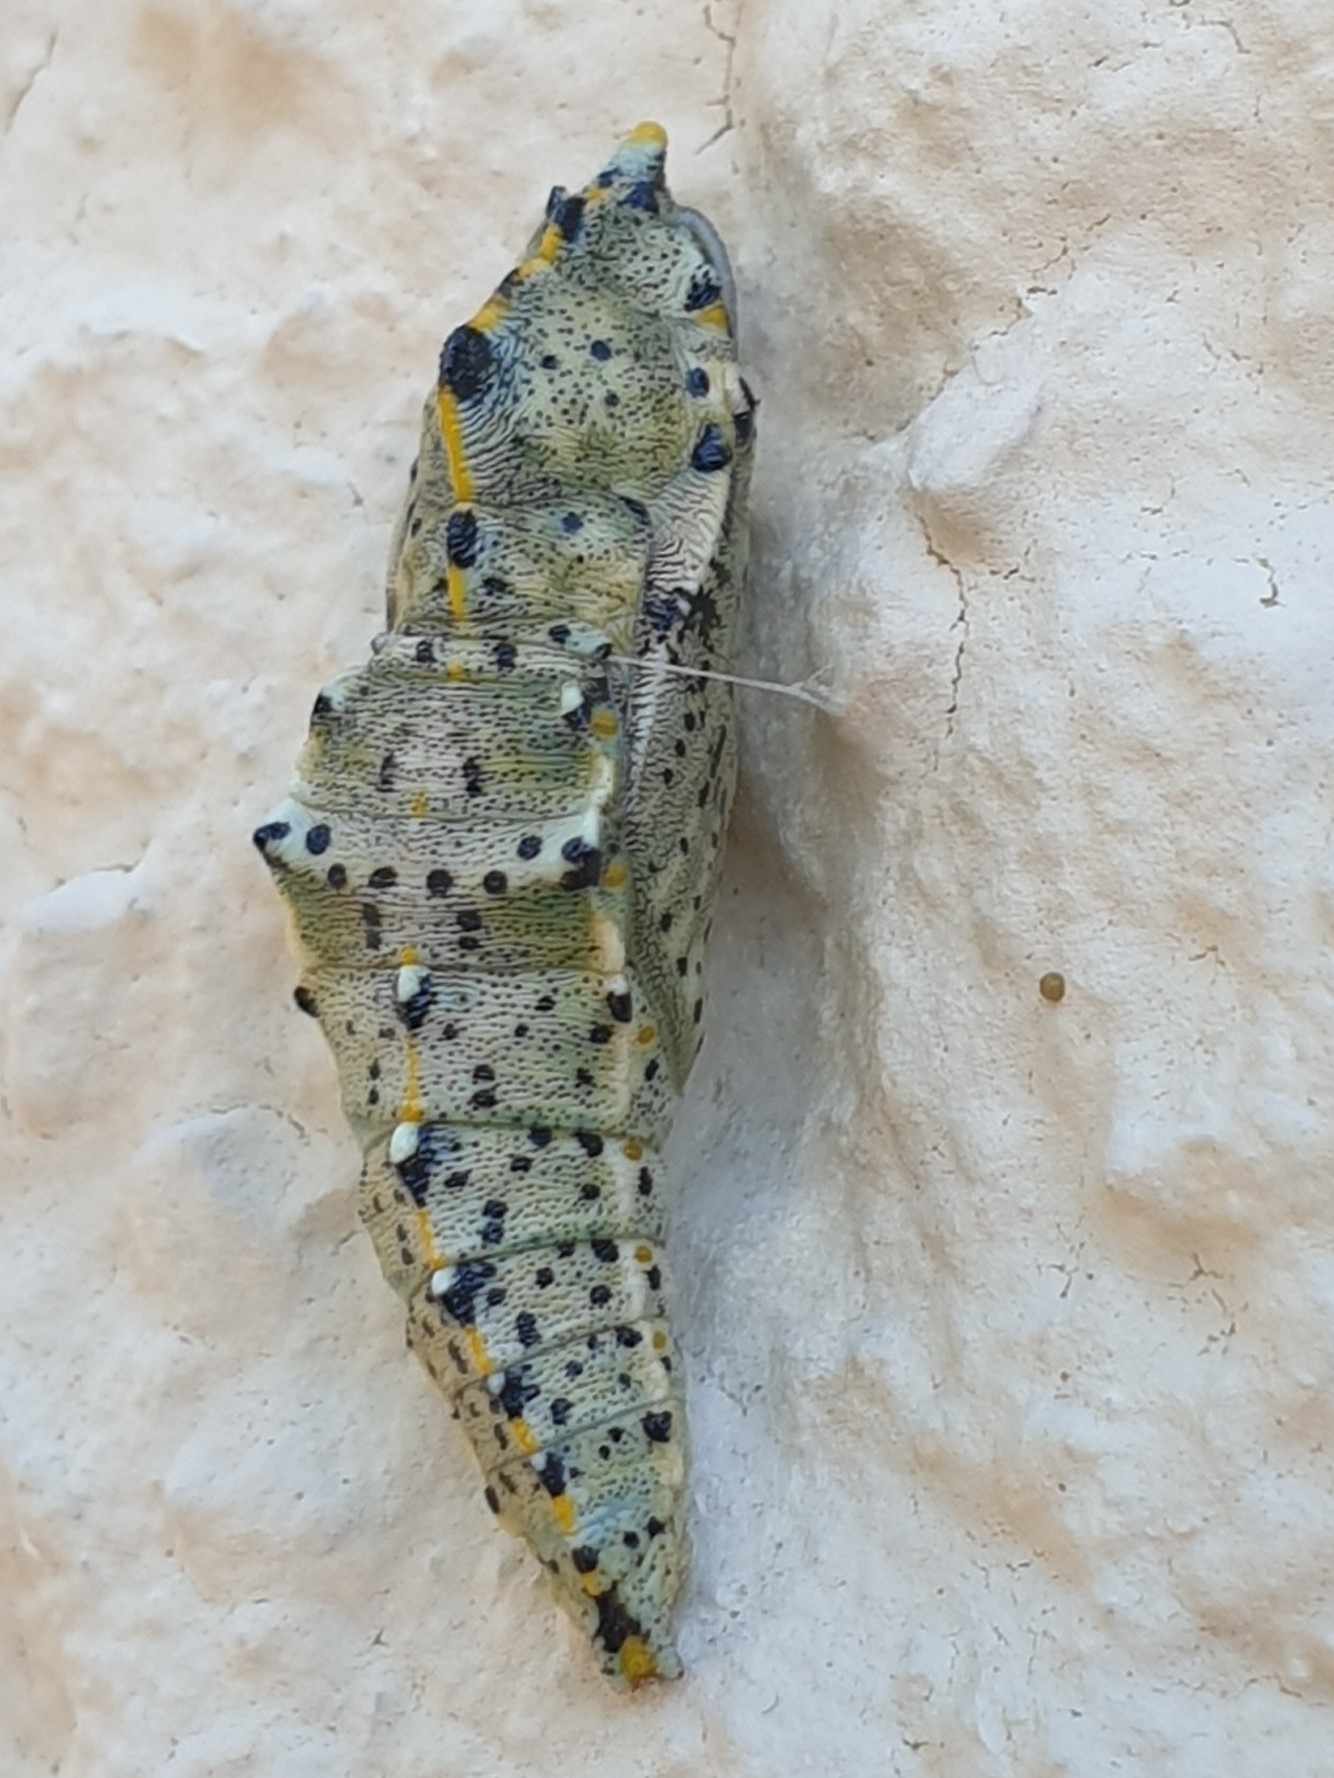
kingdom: Animalia
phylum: Arthropoda
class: Insecta
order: Lepidoptera
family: Pieridae
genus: Pieris
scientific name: Pieris brassicae
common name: Large white
